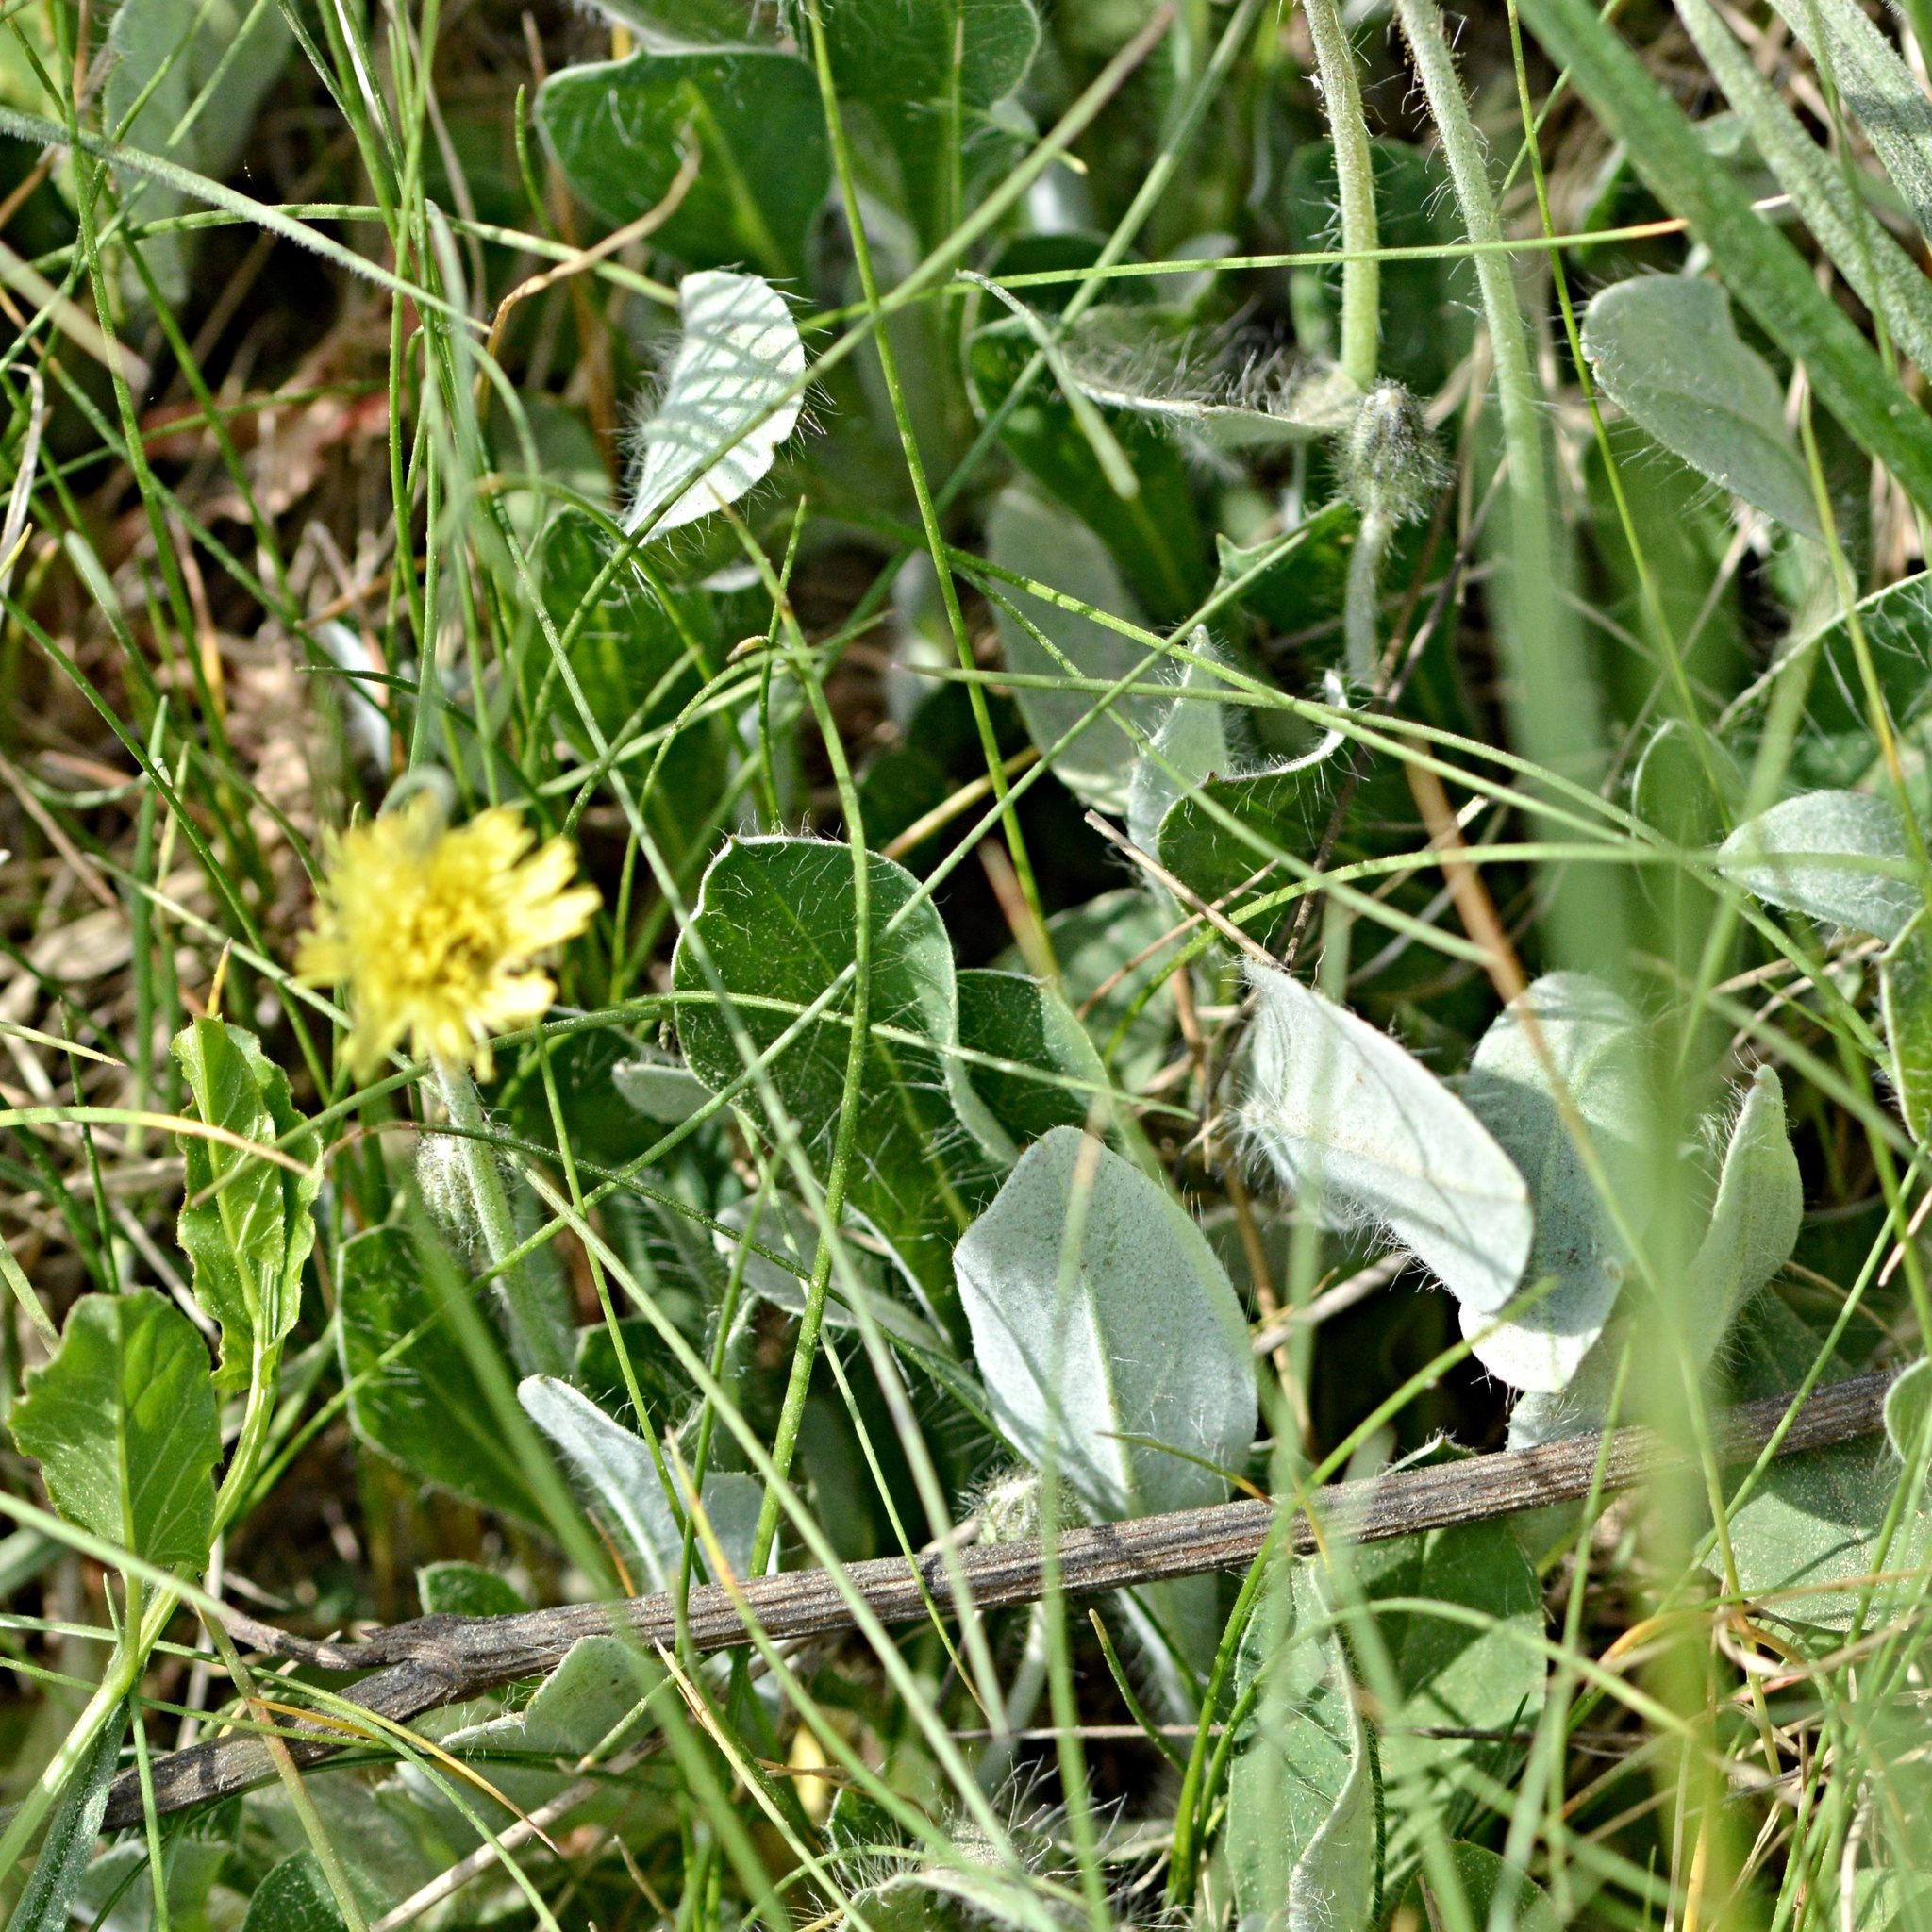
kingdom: Plantae
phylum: Tracheophyta
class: Magnoliopsida
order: Asterales
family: Asteraceae
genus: Pilosella
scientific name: Pilosella officinarum
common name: Mouse-ear hawkweed
